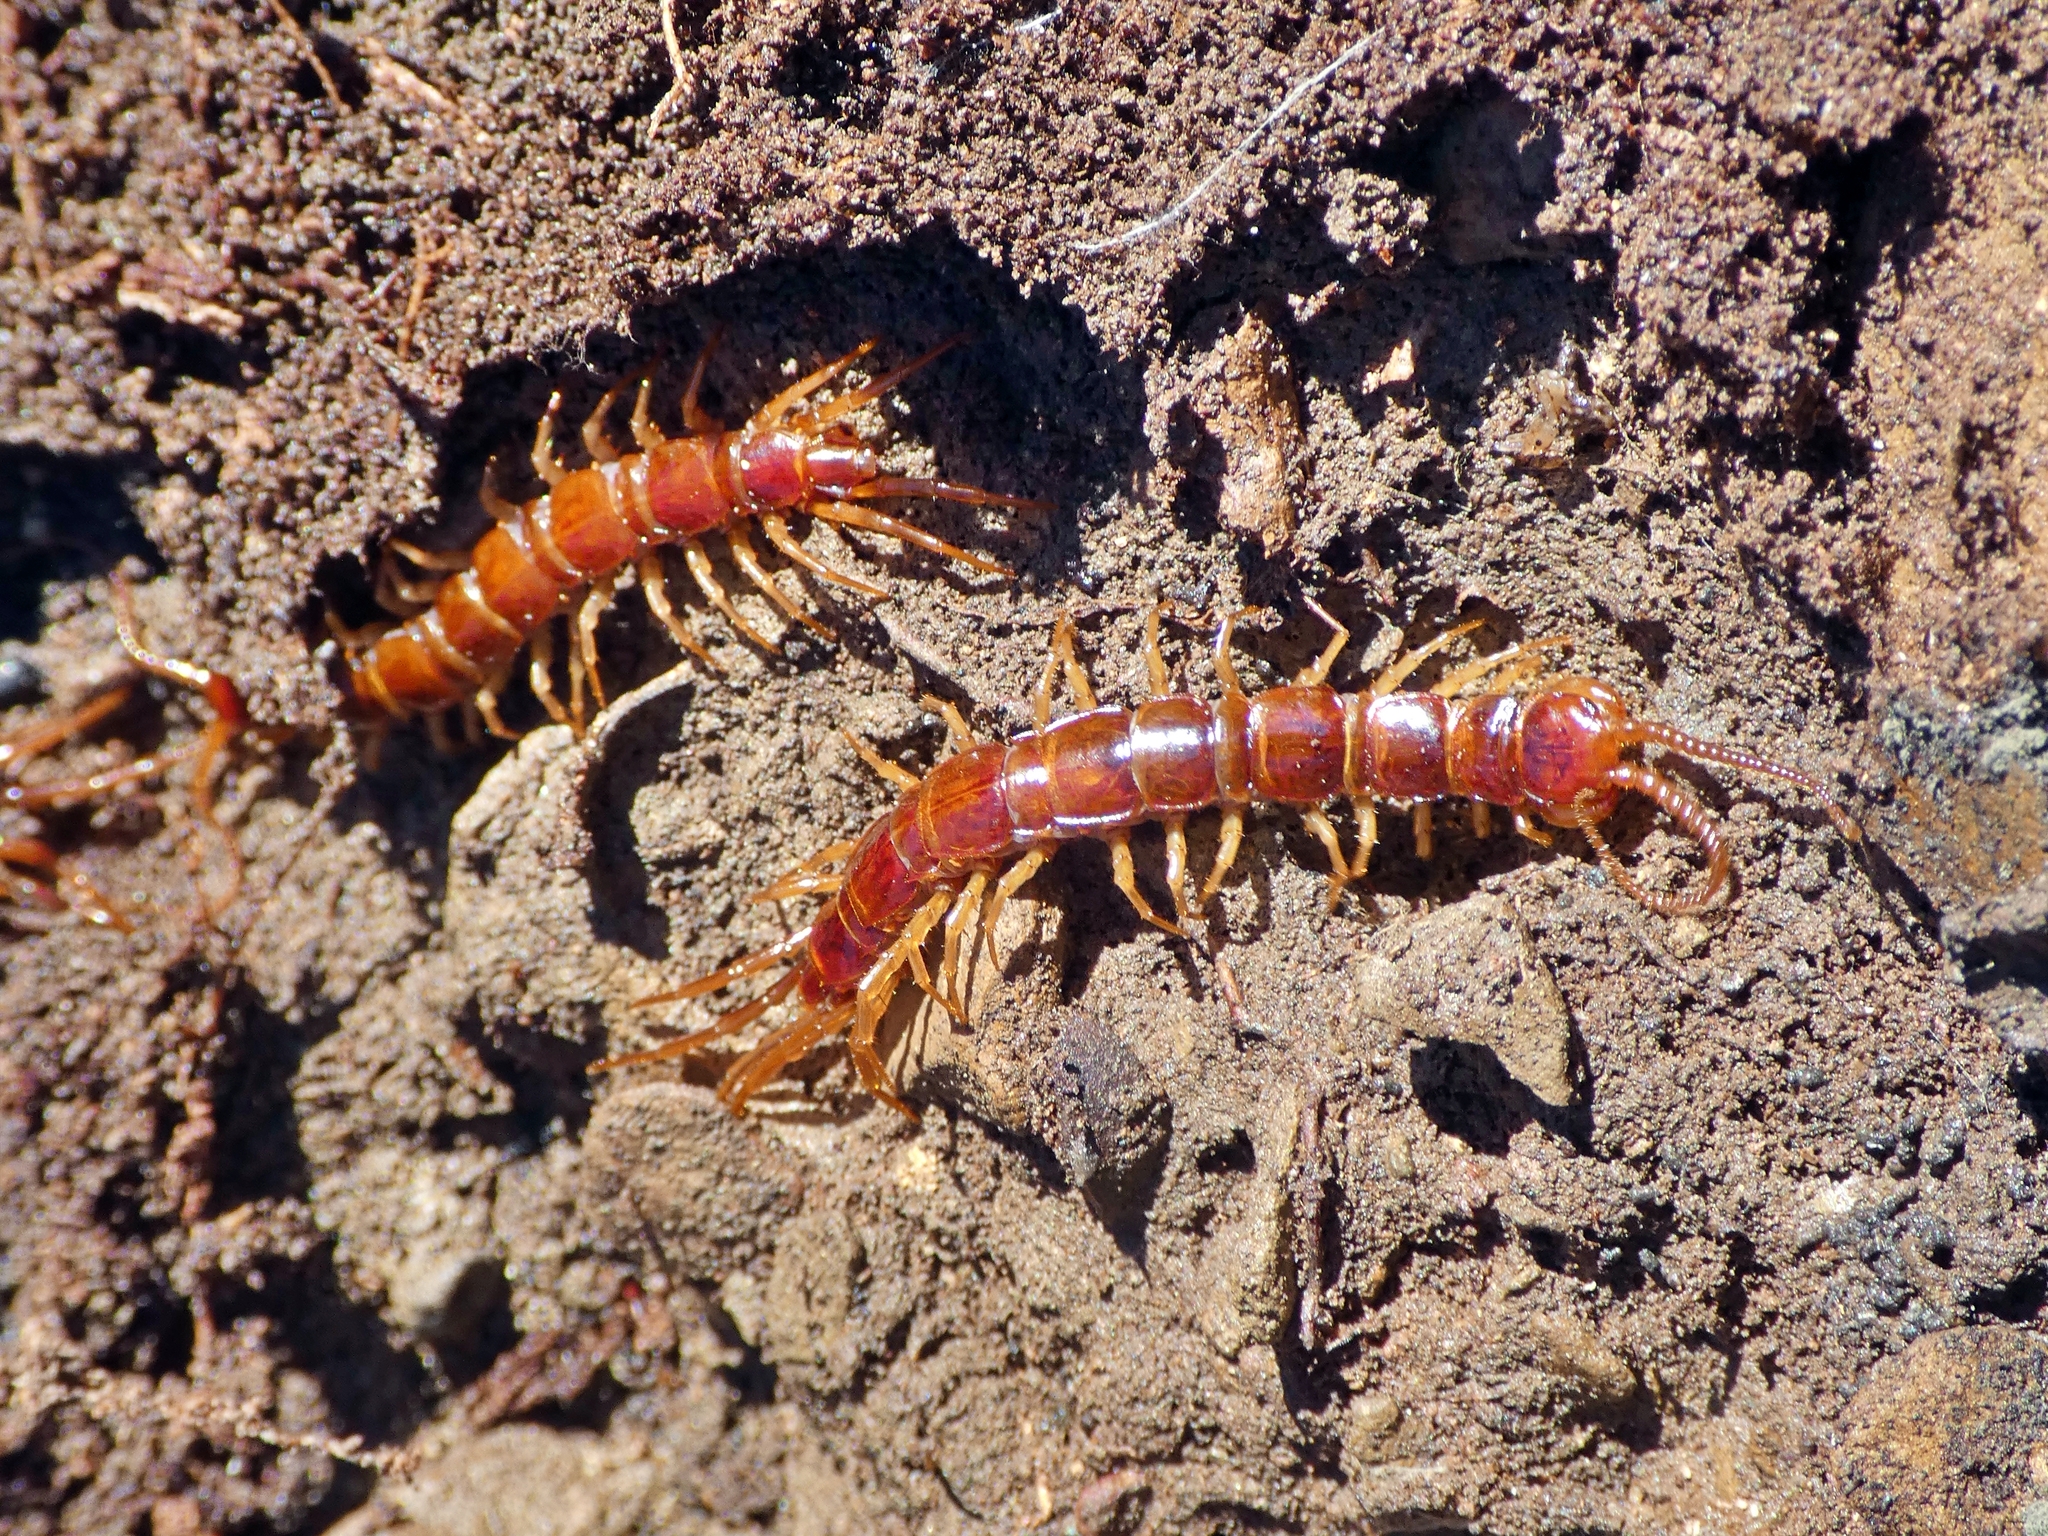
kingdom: Animalia
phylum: Arthropoda
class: Chilopoda
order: Lithobiomorpha
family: Lithobiidae
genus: Lithobius
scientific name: Lithobius forficatus
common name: Centipede
